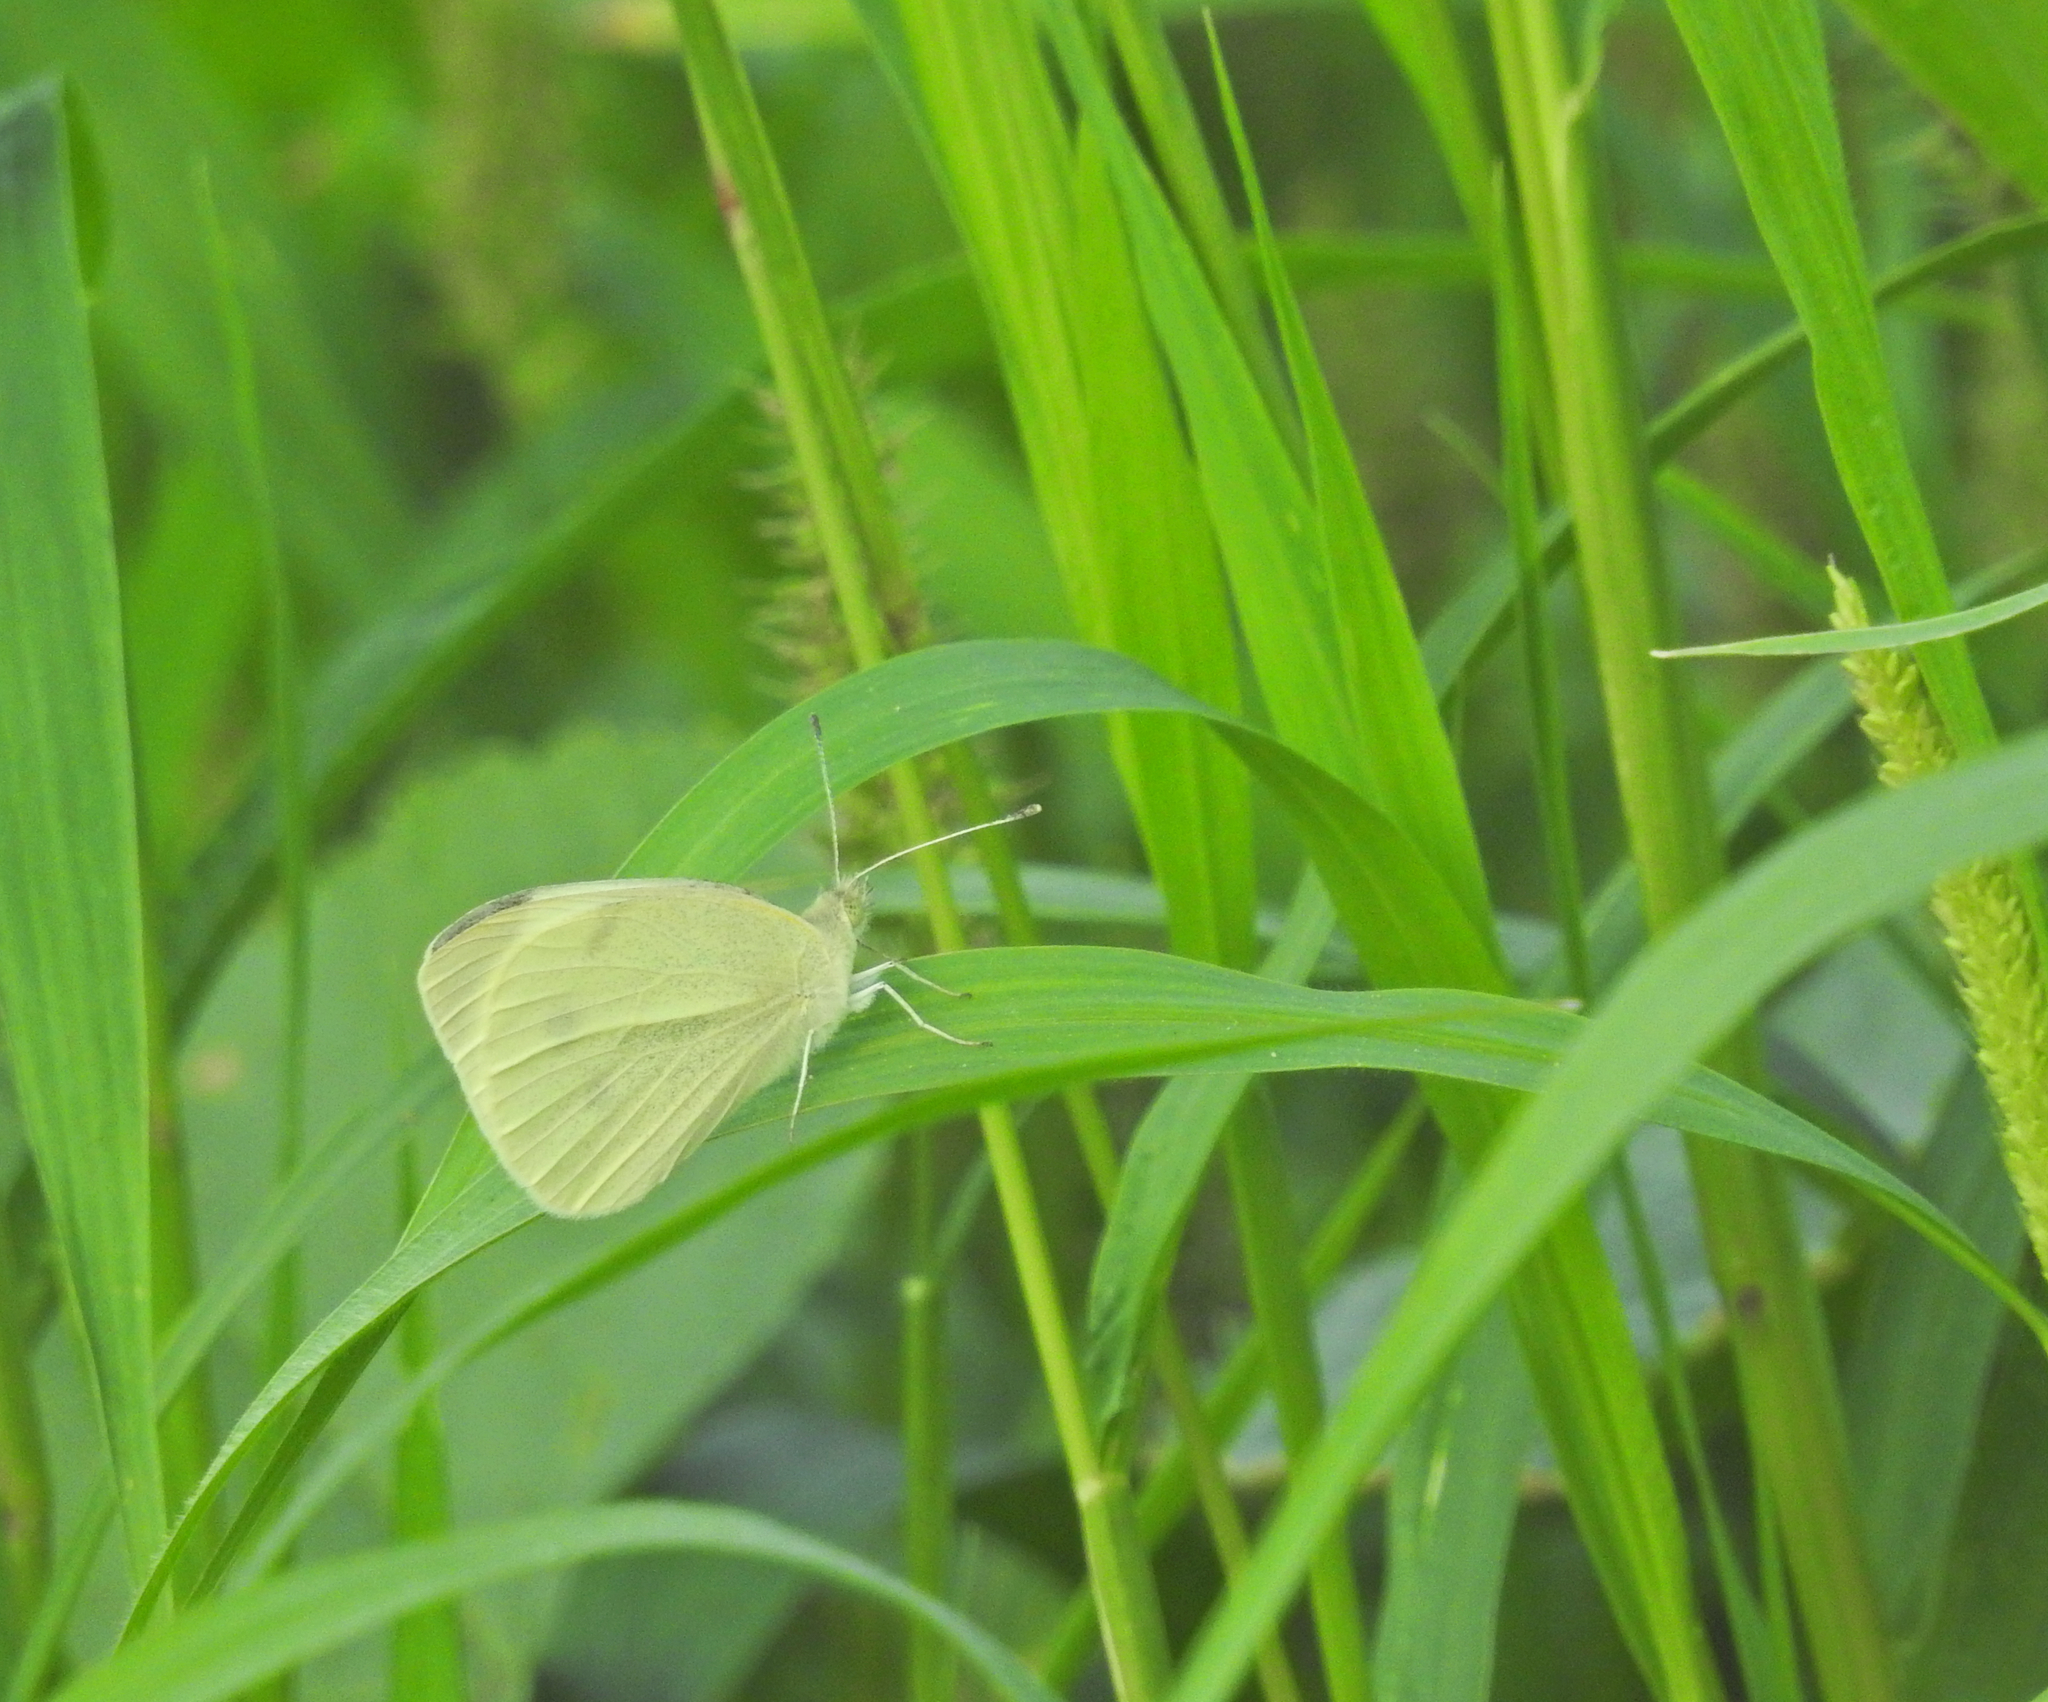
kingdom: Animalia
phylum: Arthropoda
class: Insecta
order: Lepidoptera
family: Pieridae
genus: Pieris
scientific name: Pieris rapae
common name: Small white
